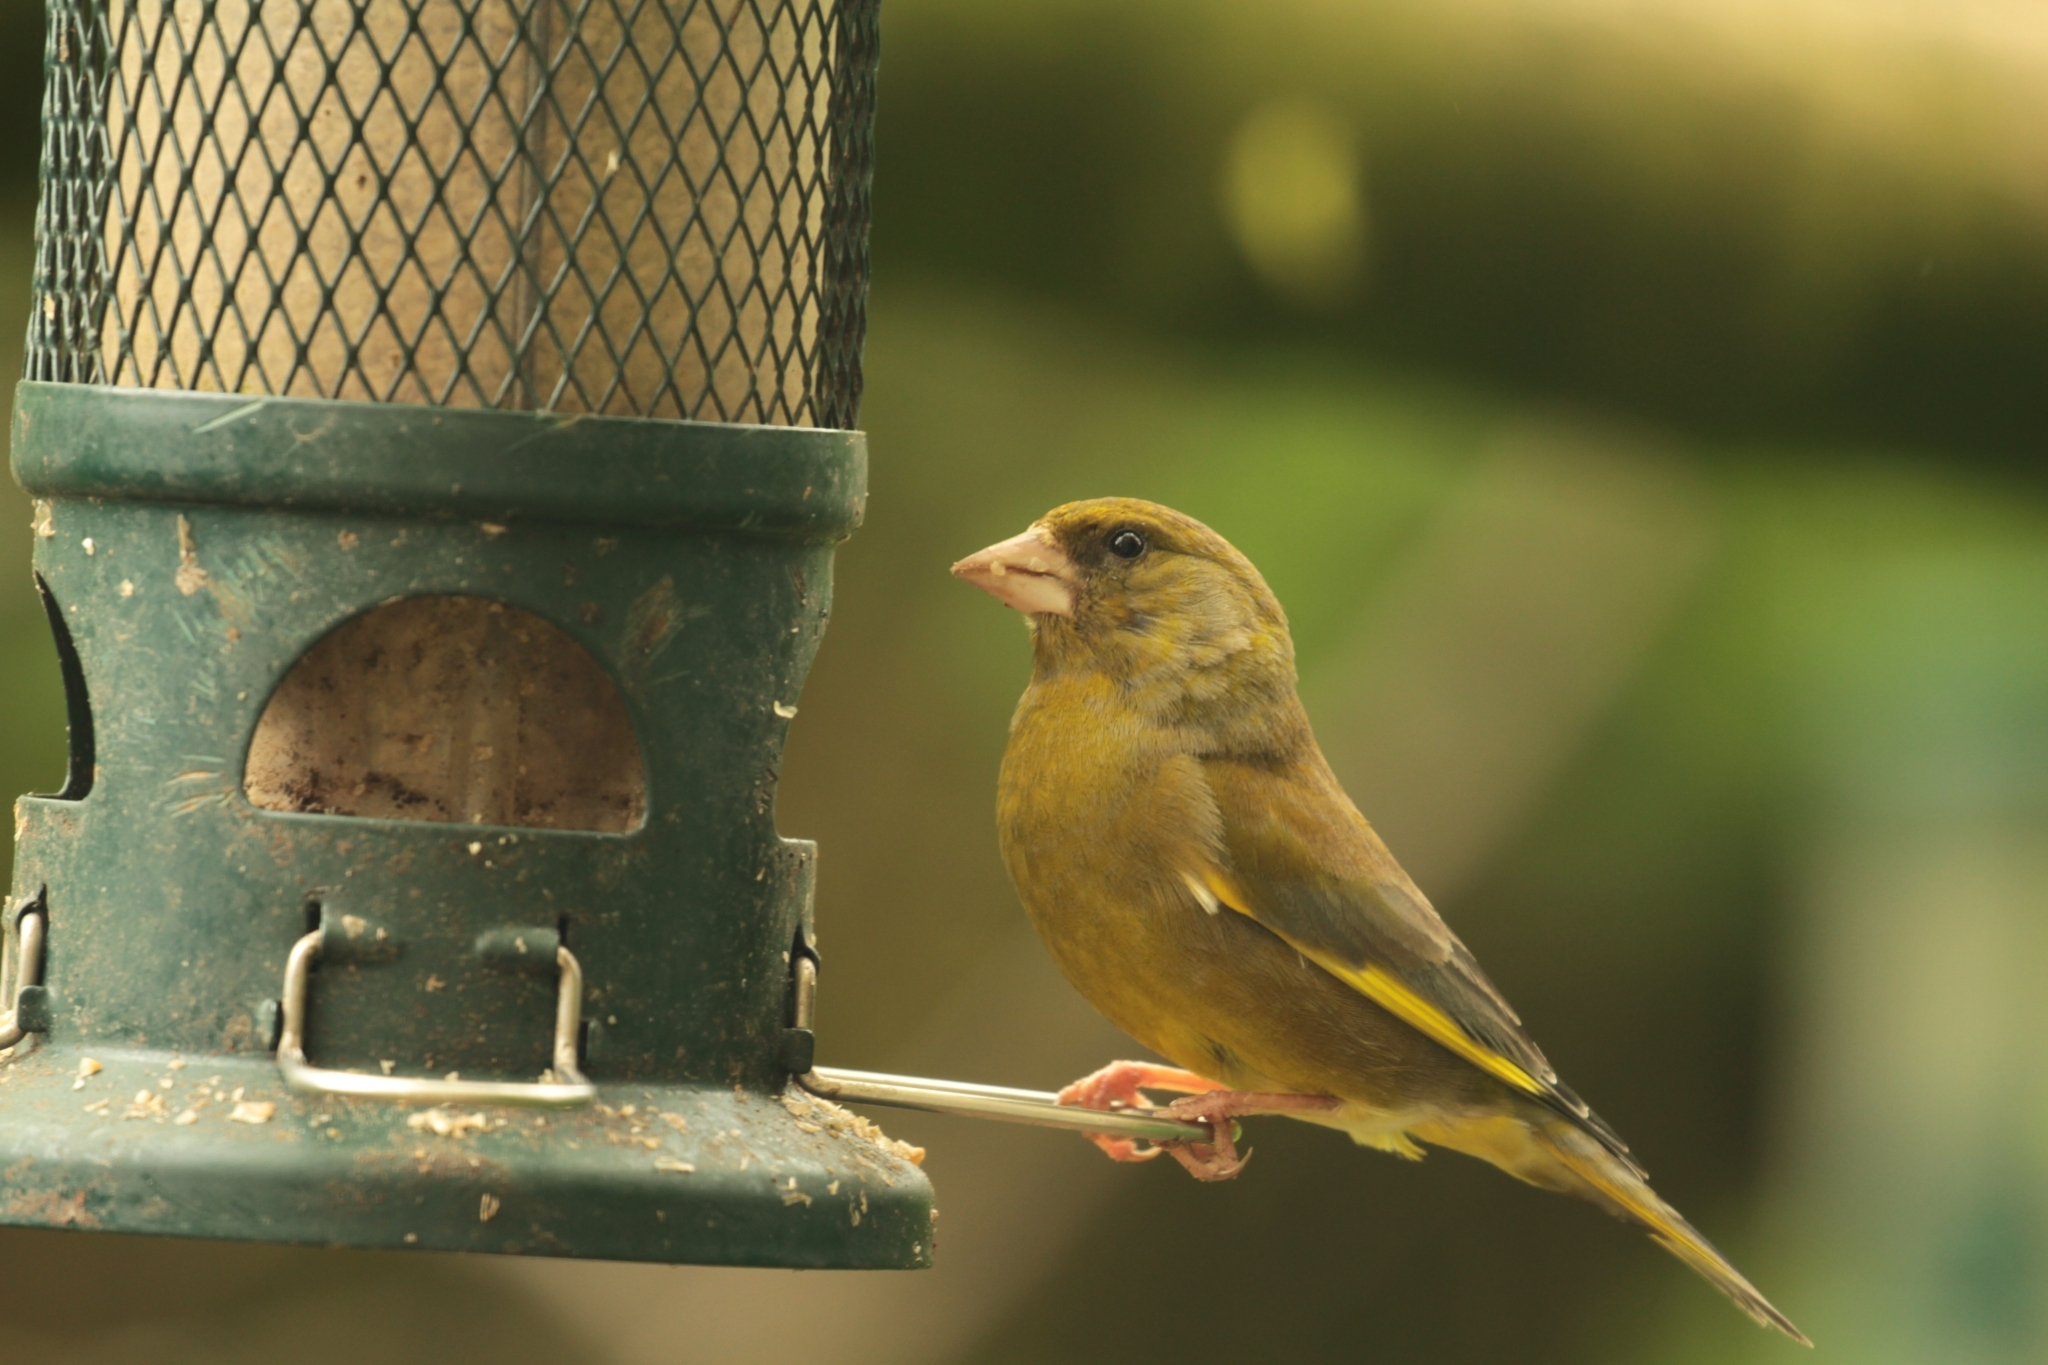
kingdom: Plantae
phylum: Tracheophyta
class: Liliopsida
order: Poales
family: Poaceae
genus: Chloris
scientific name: Chloris chloris
